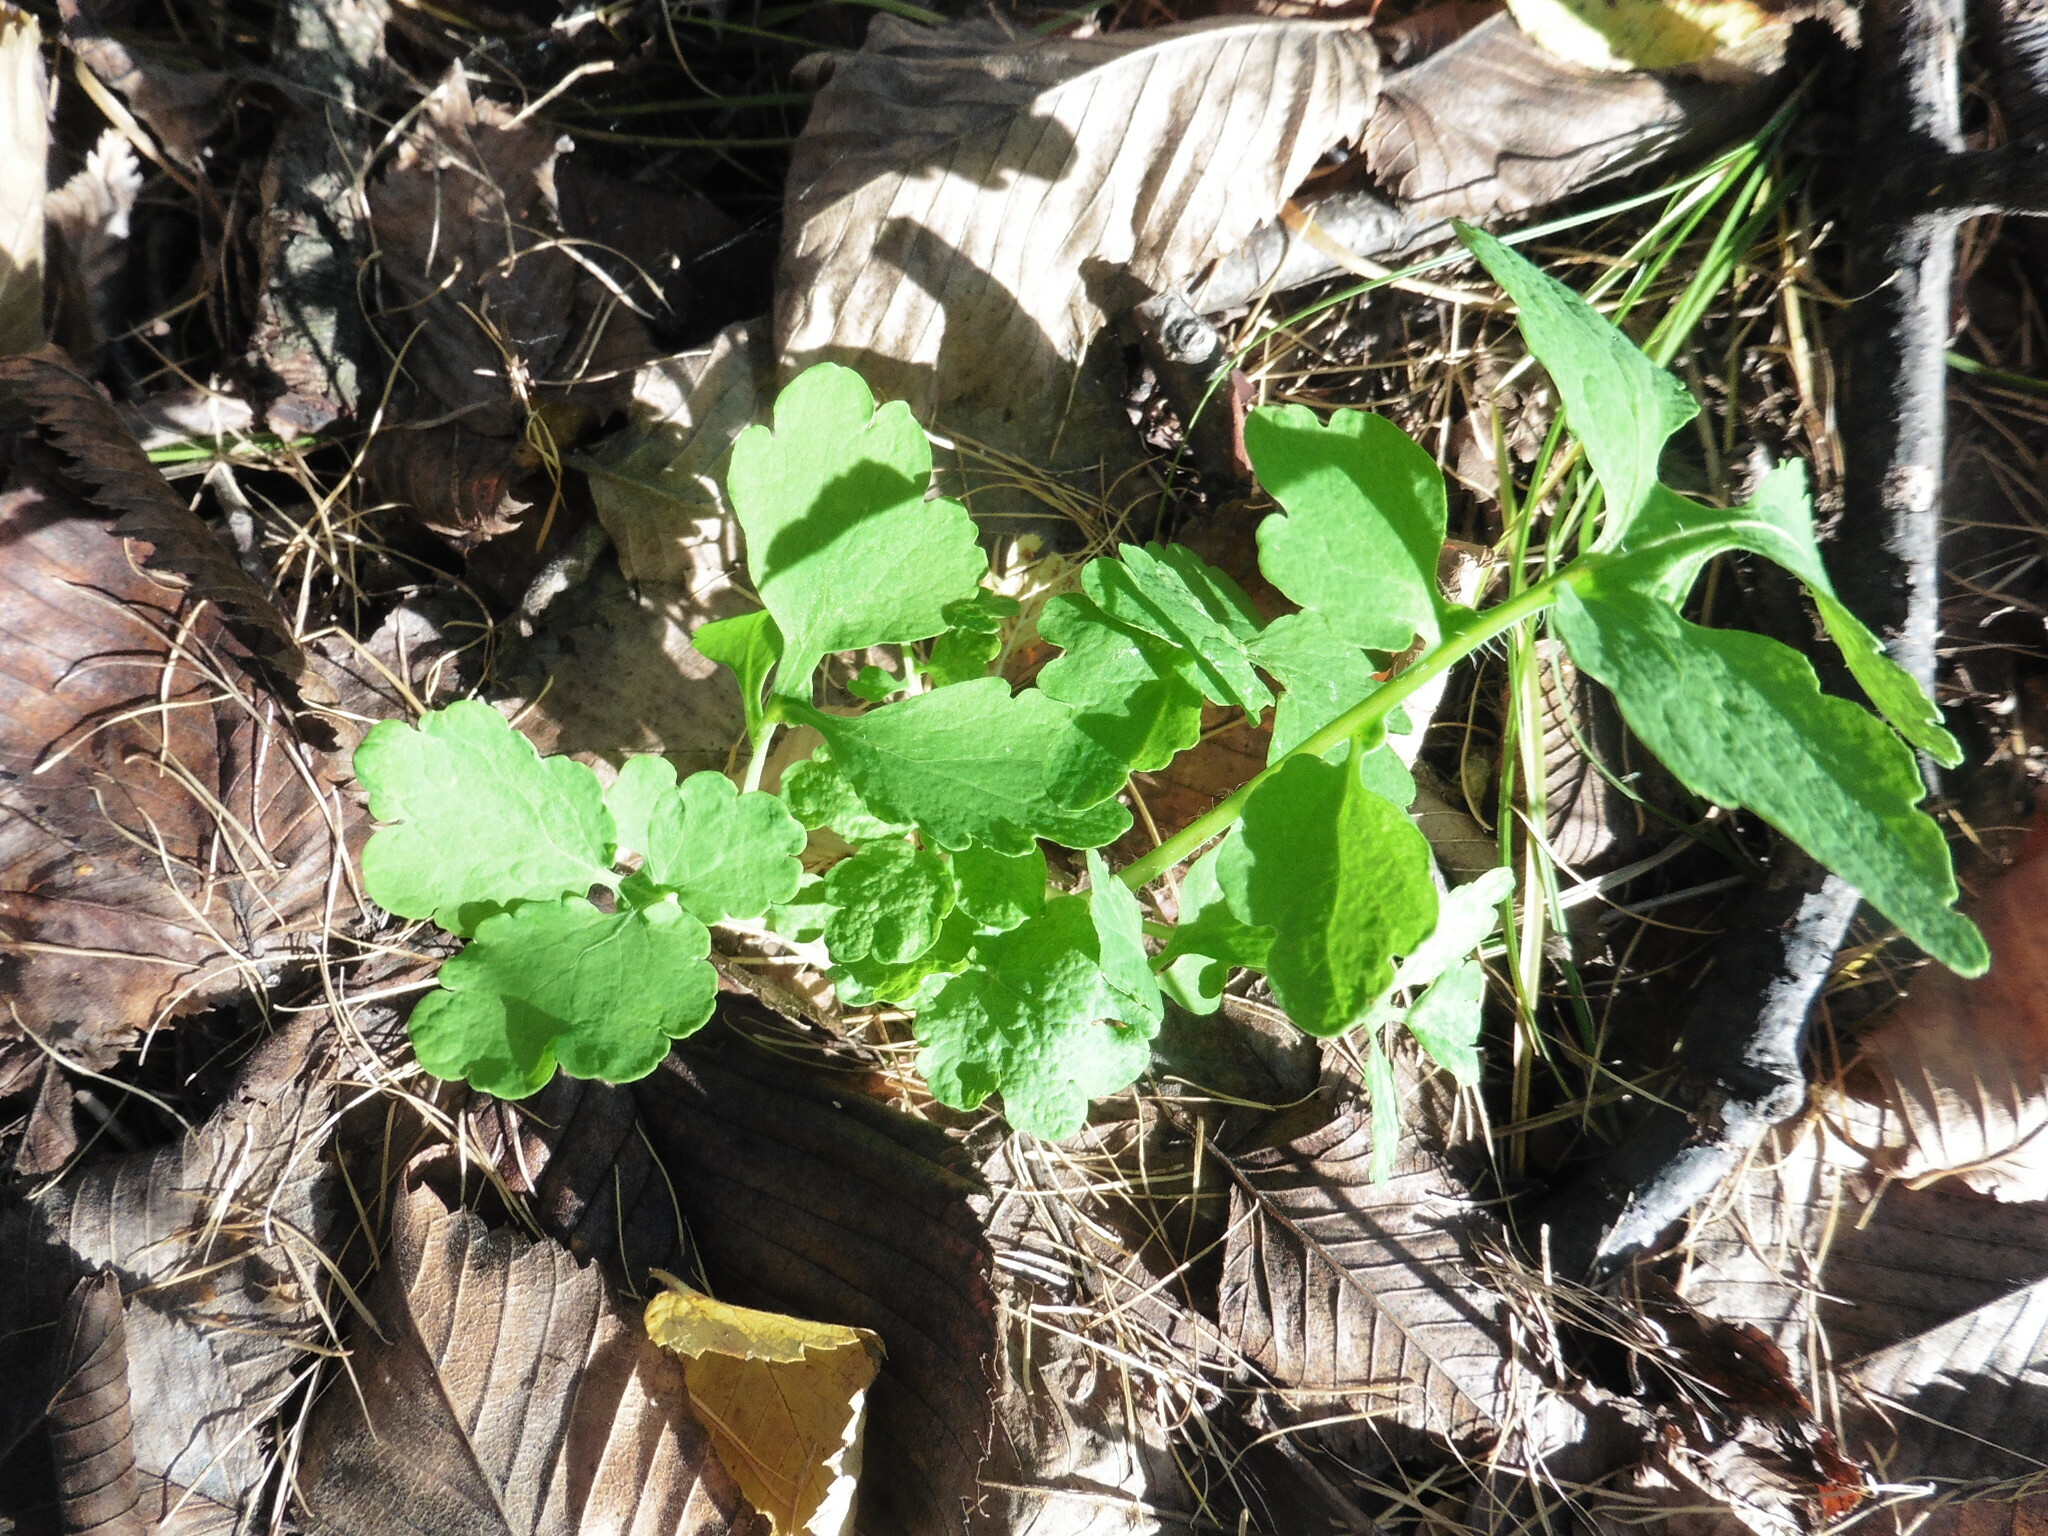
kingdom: Plantae
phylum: Tracheophyta
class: Magnoliopsida
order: Ranunculales
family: Papaveraceae
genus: Chelidonium
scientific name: Chelidonium majus
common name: Greater celandine
